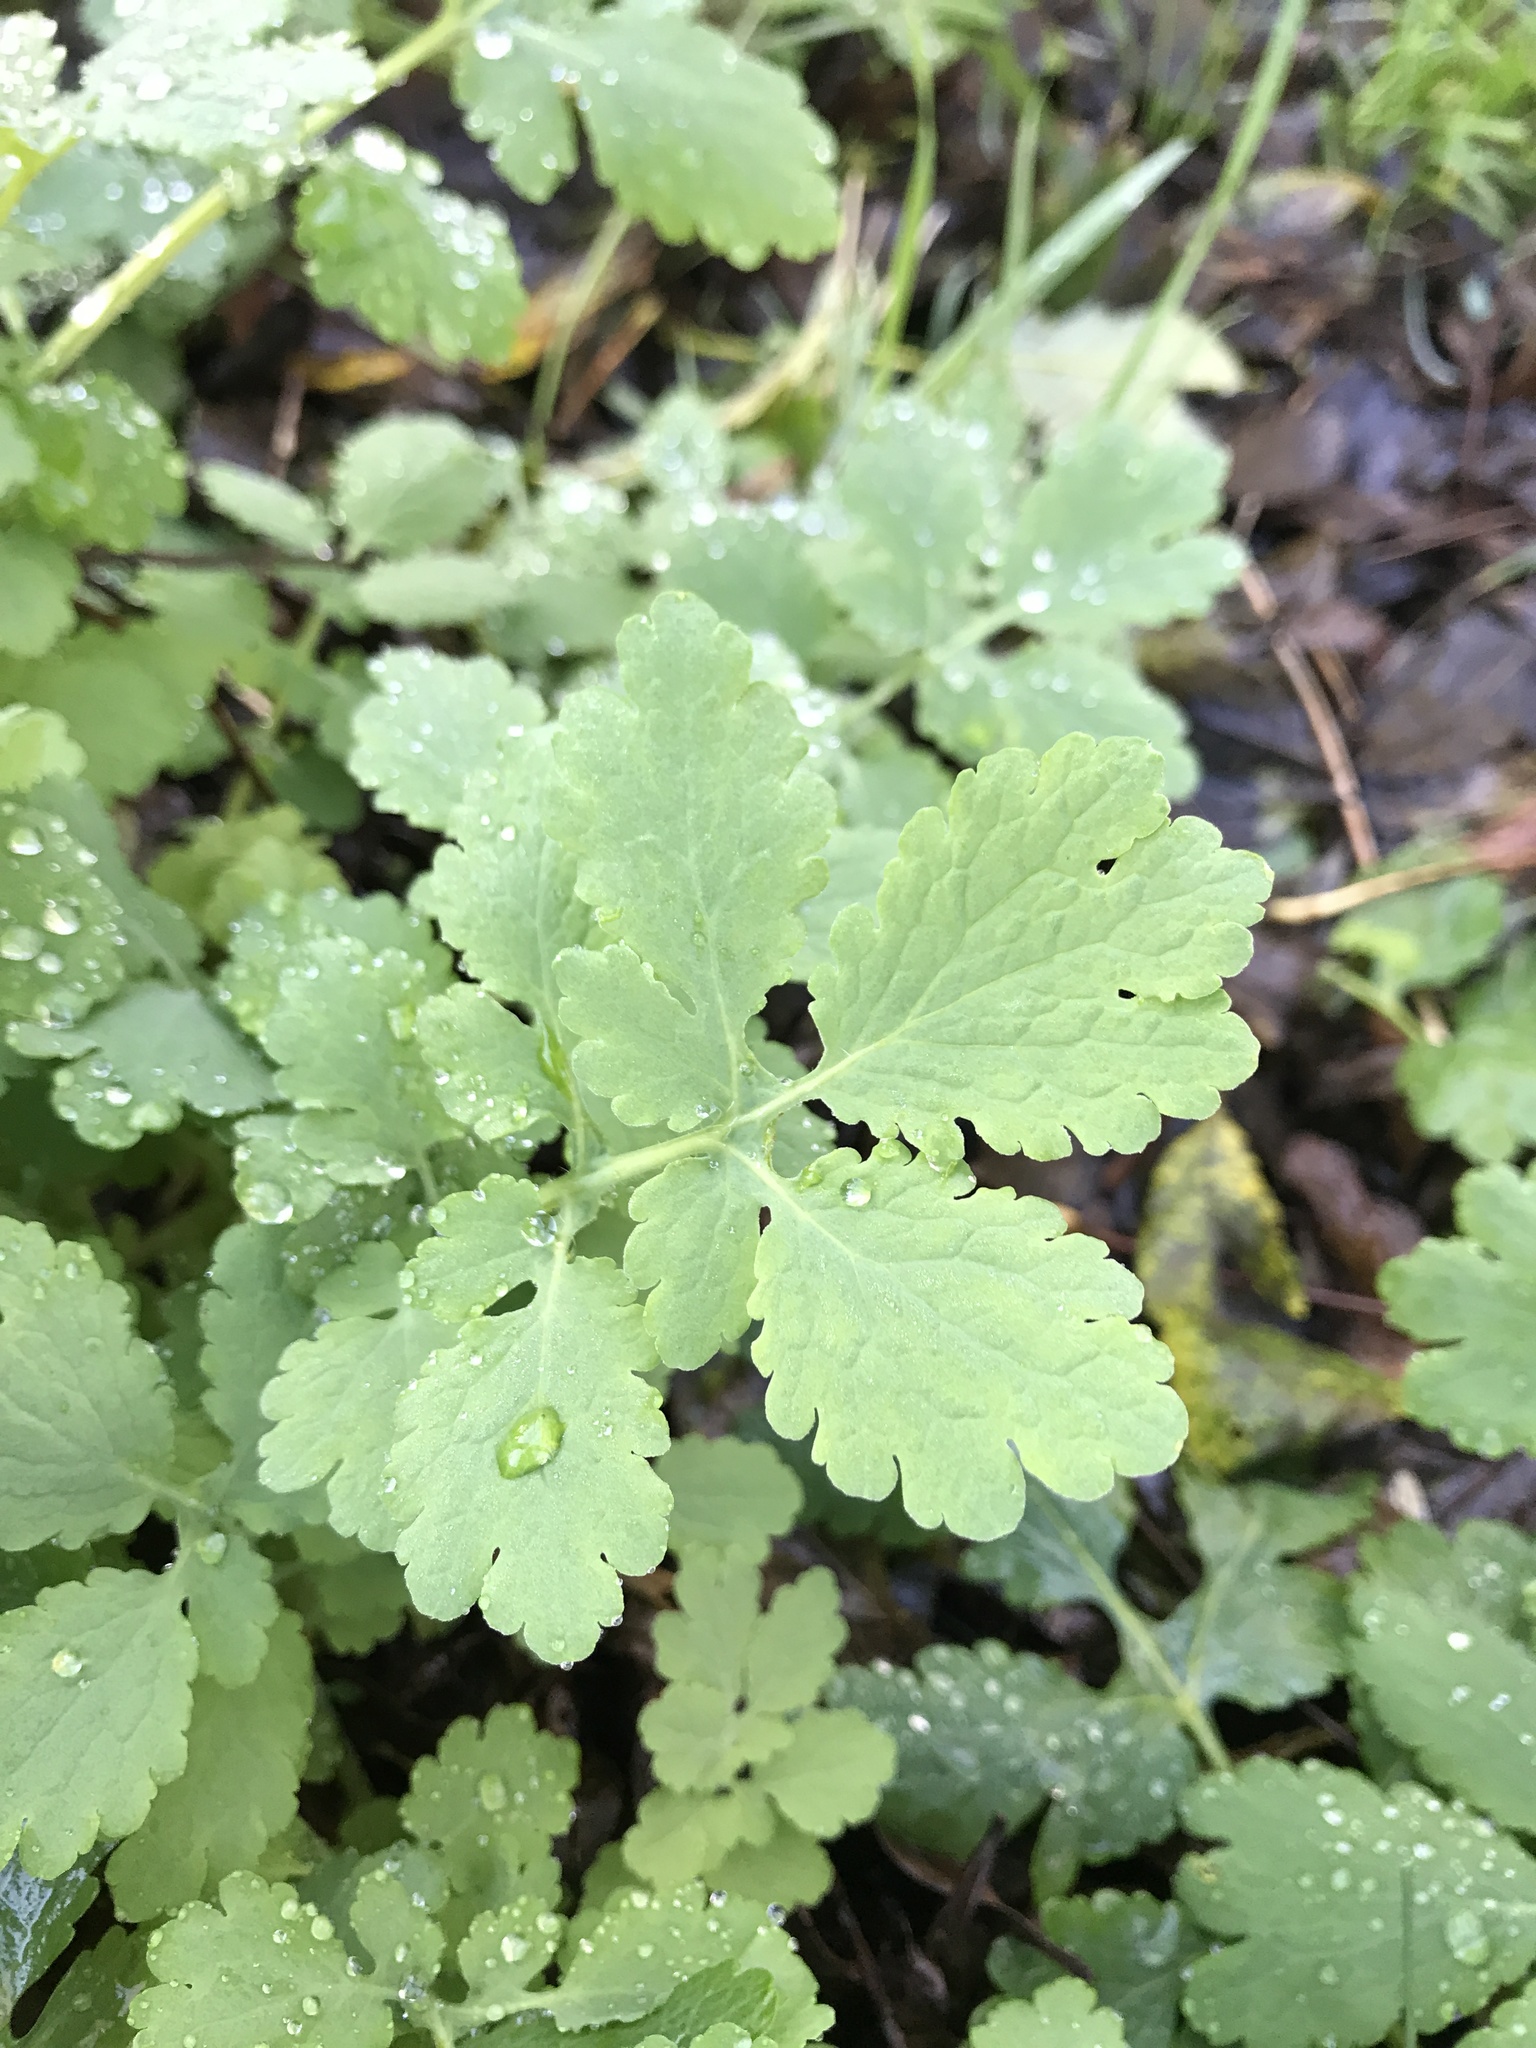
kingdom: Plantae
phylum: Tracheophyta
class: Magnoliopsida
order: Ranunculales
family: Papaveraceae
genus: Chelidonium
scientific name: Chelidonium majus
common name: Greater celandine
